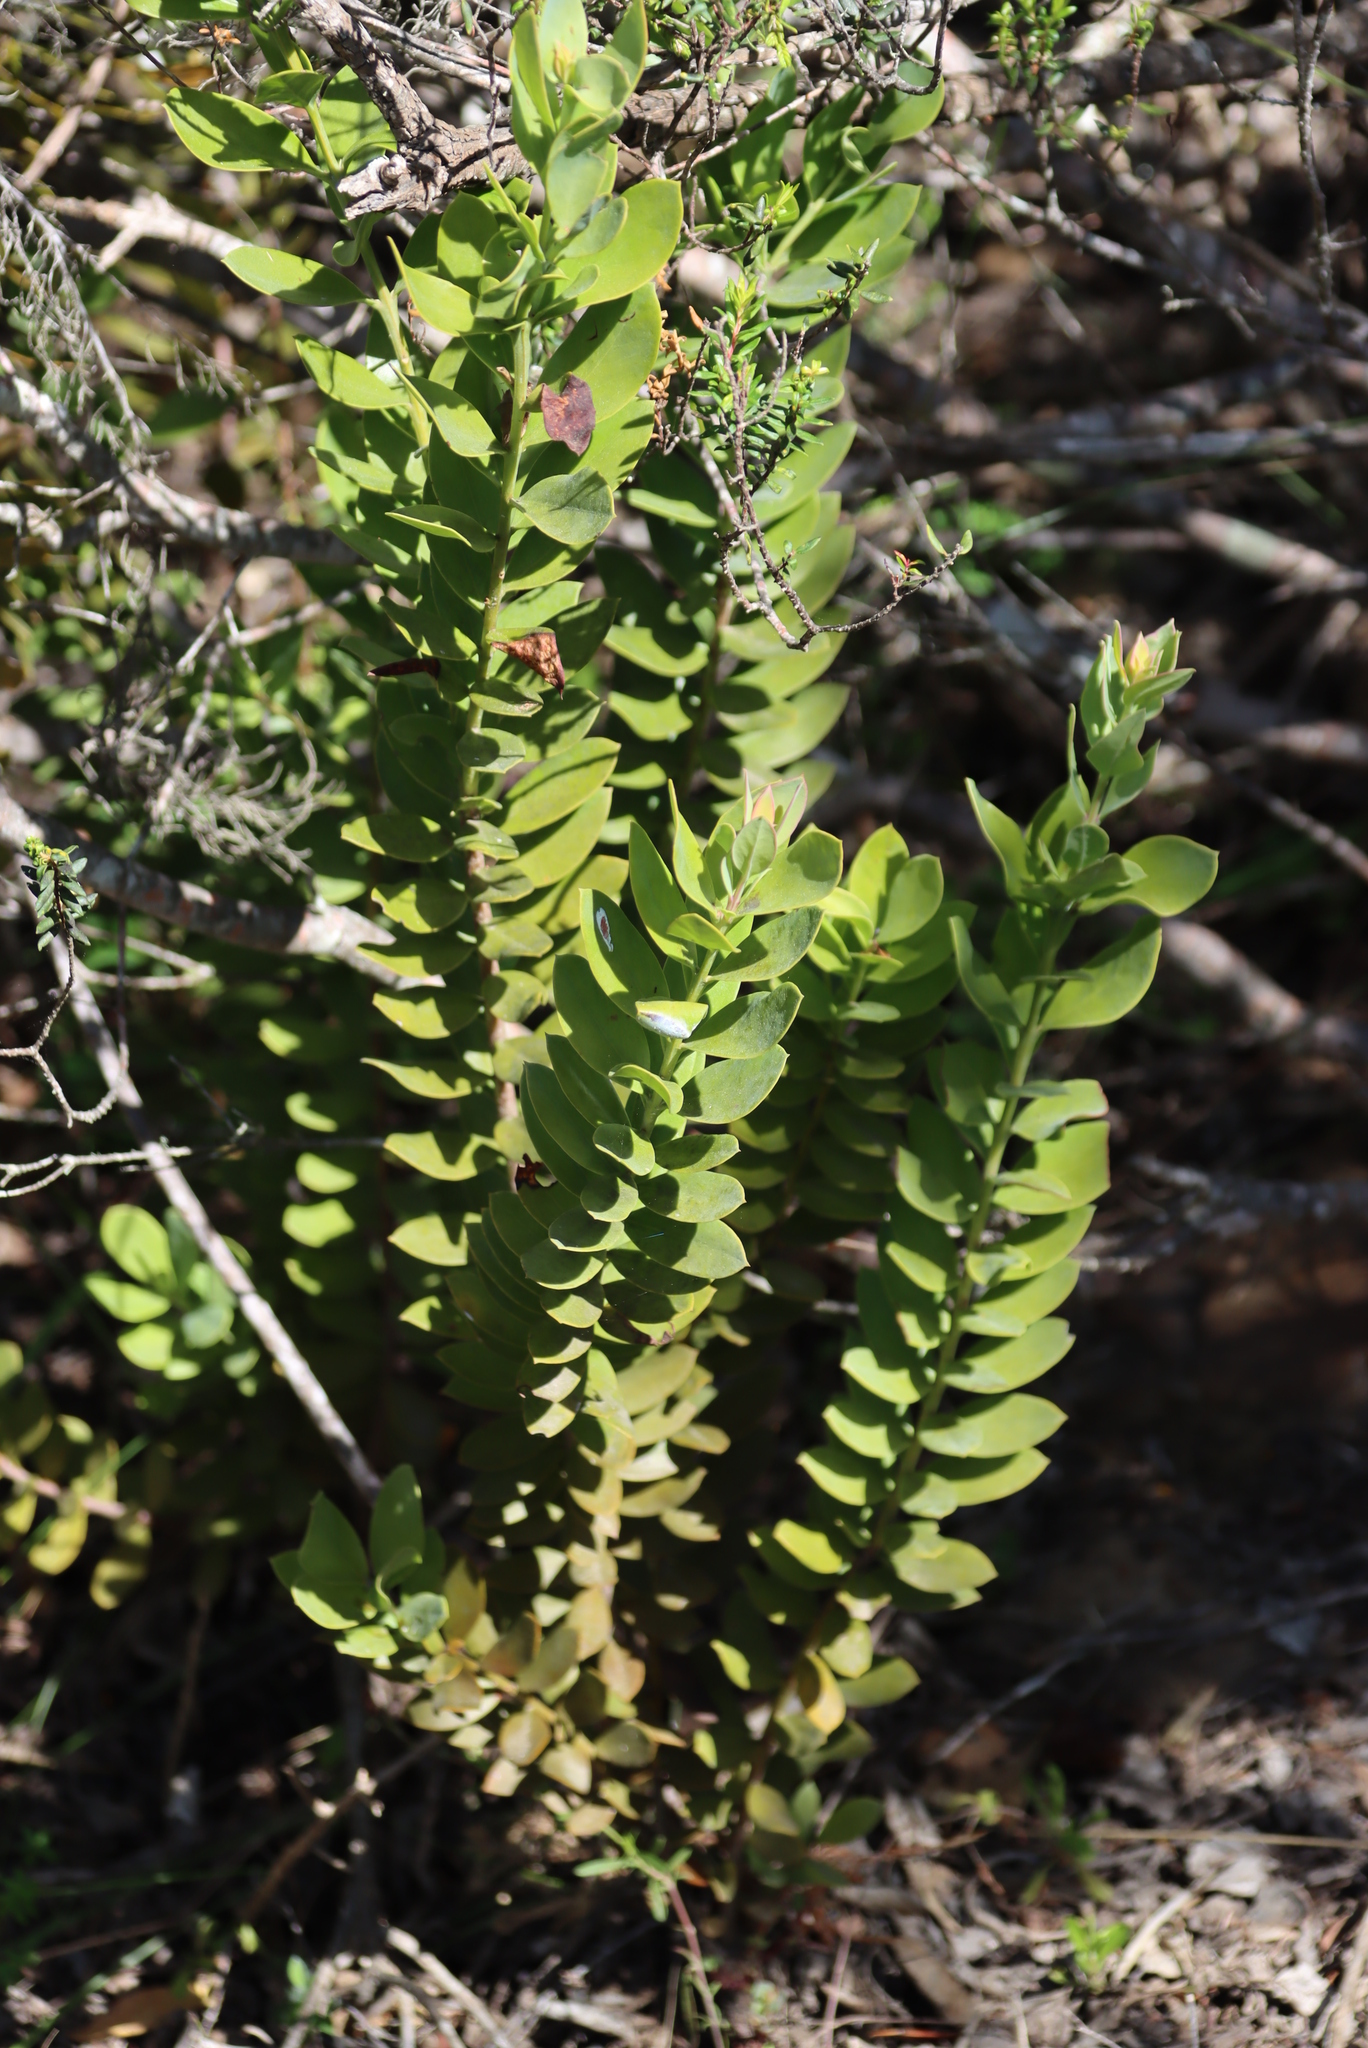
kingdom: Plantae
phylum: Tracheophyta
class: Magnoliopsida
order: Santalales
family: Santalaceae
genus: Osyris
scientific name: Osyris compressa
